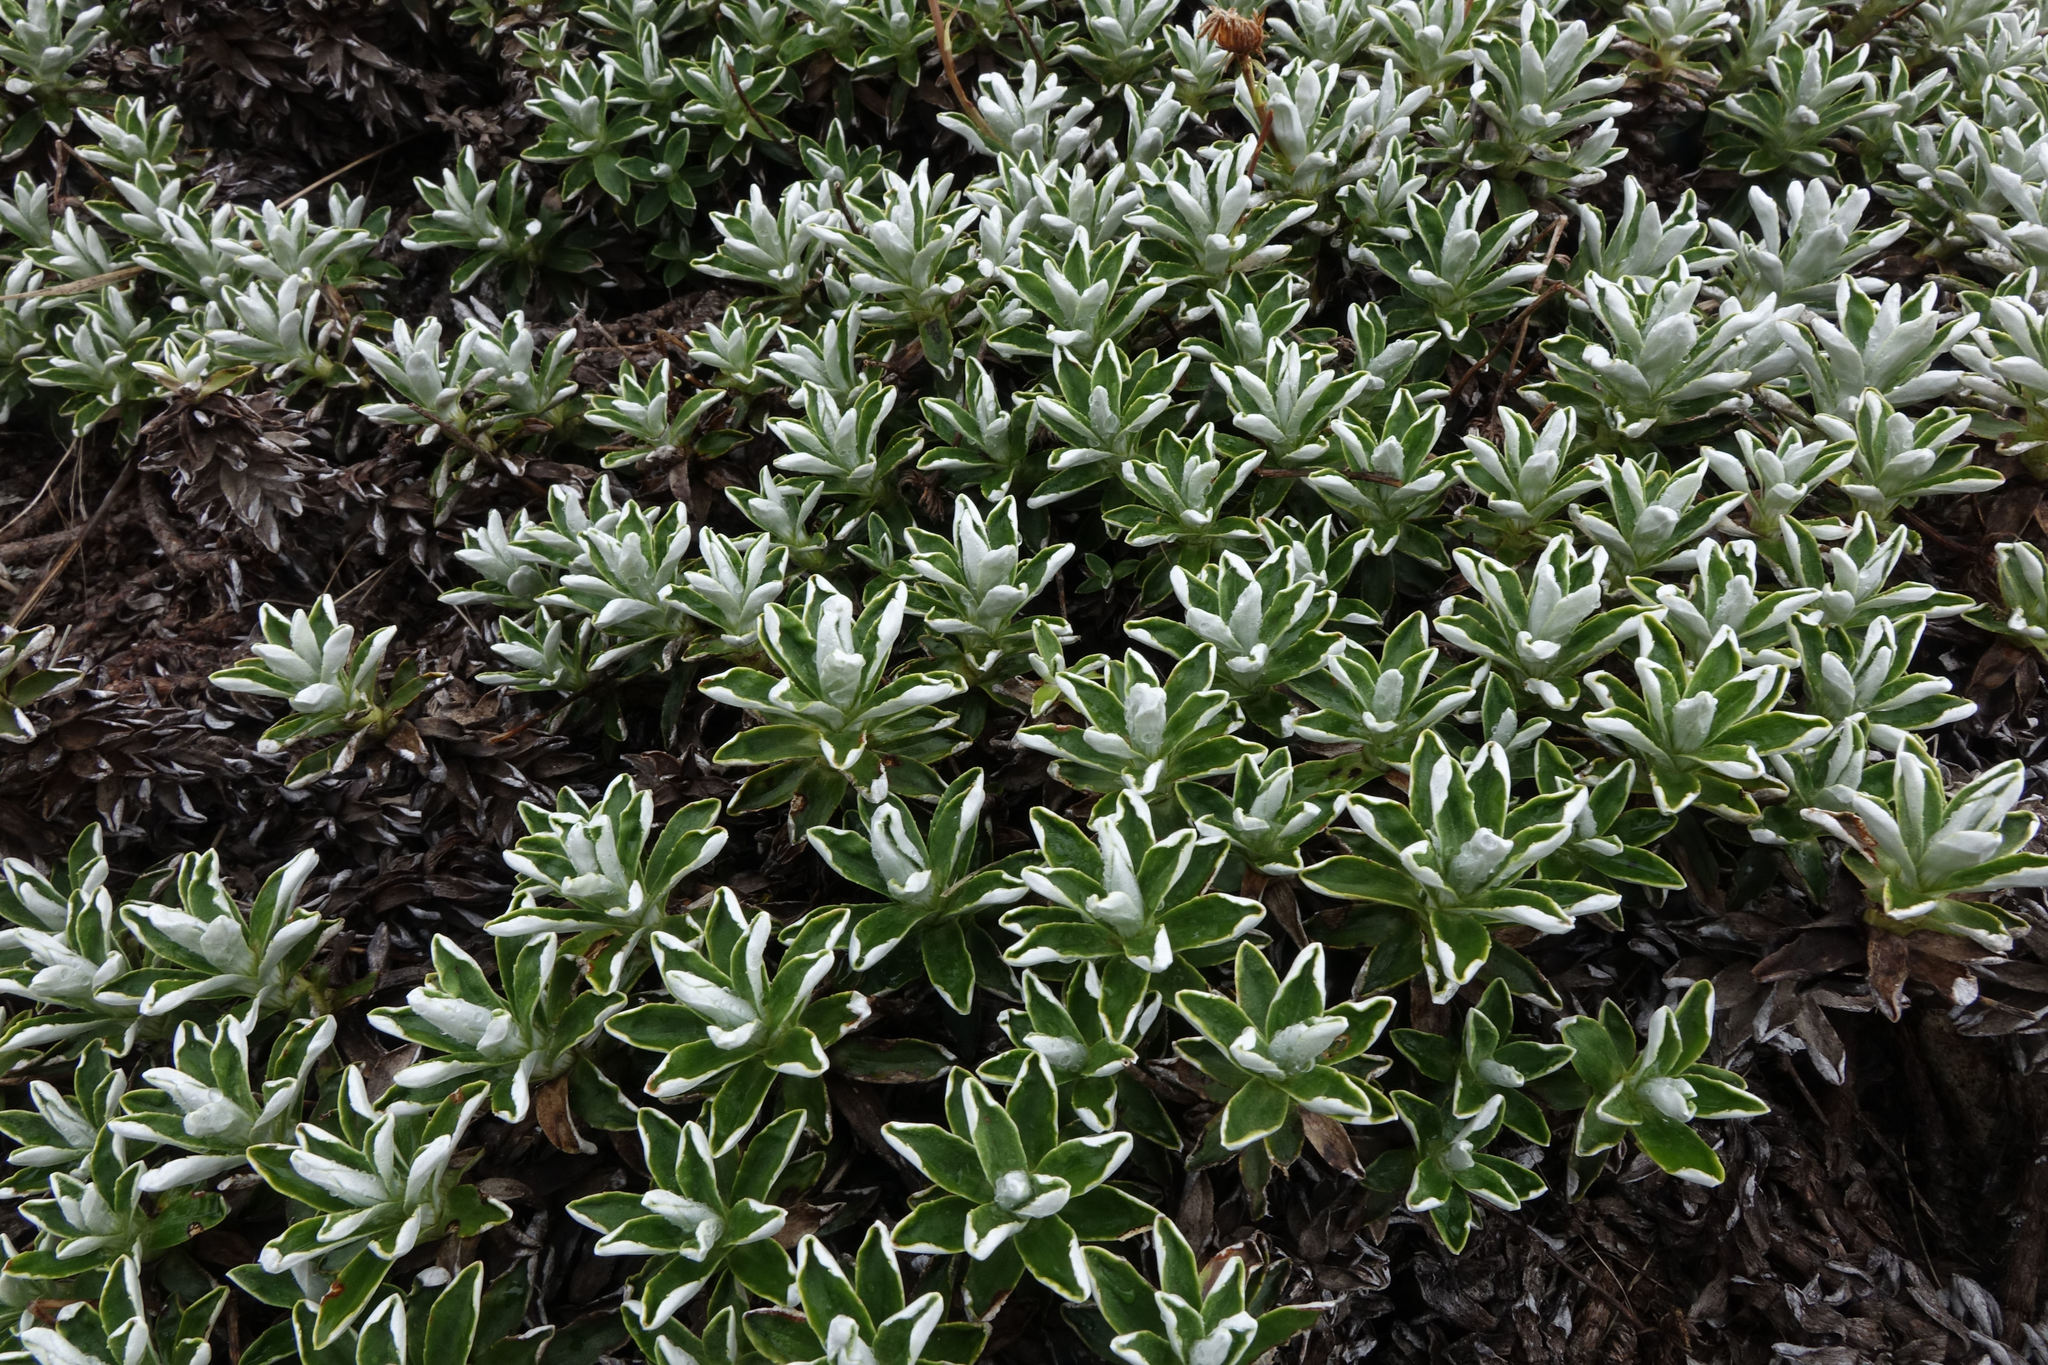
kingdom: Plantae
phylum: Tracheophyta
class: Magnoliopsida
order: Asterales
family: Asteraceae
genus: Celmisia
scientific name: Celmisia angustifolia
